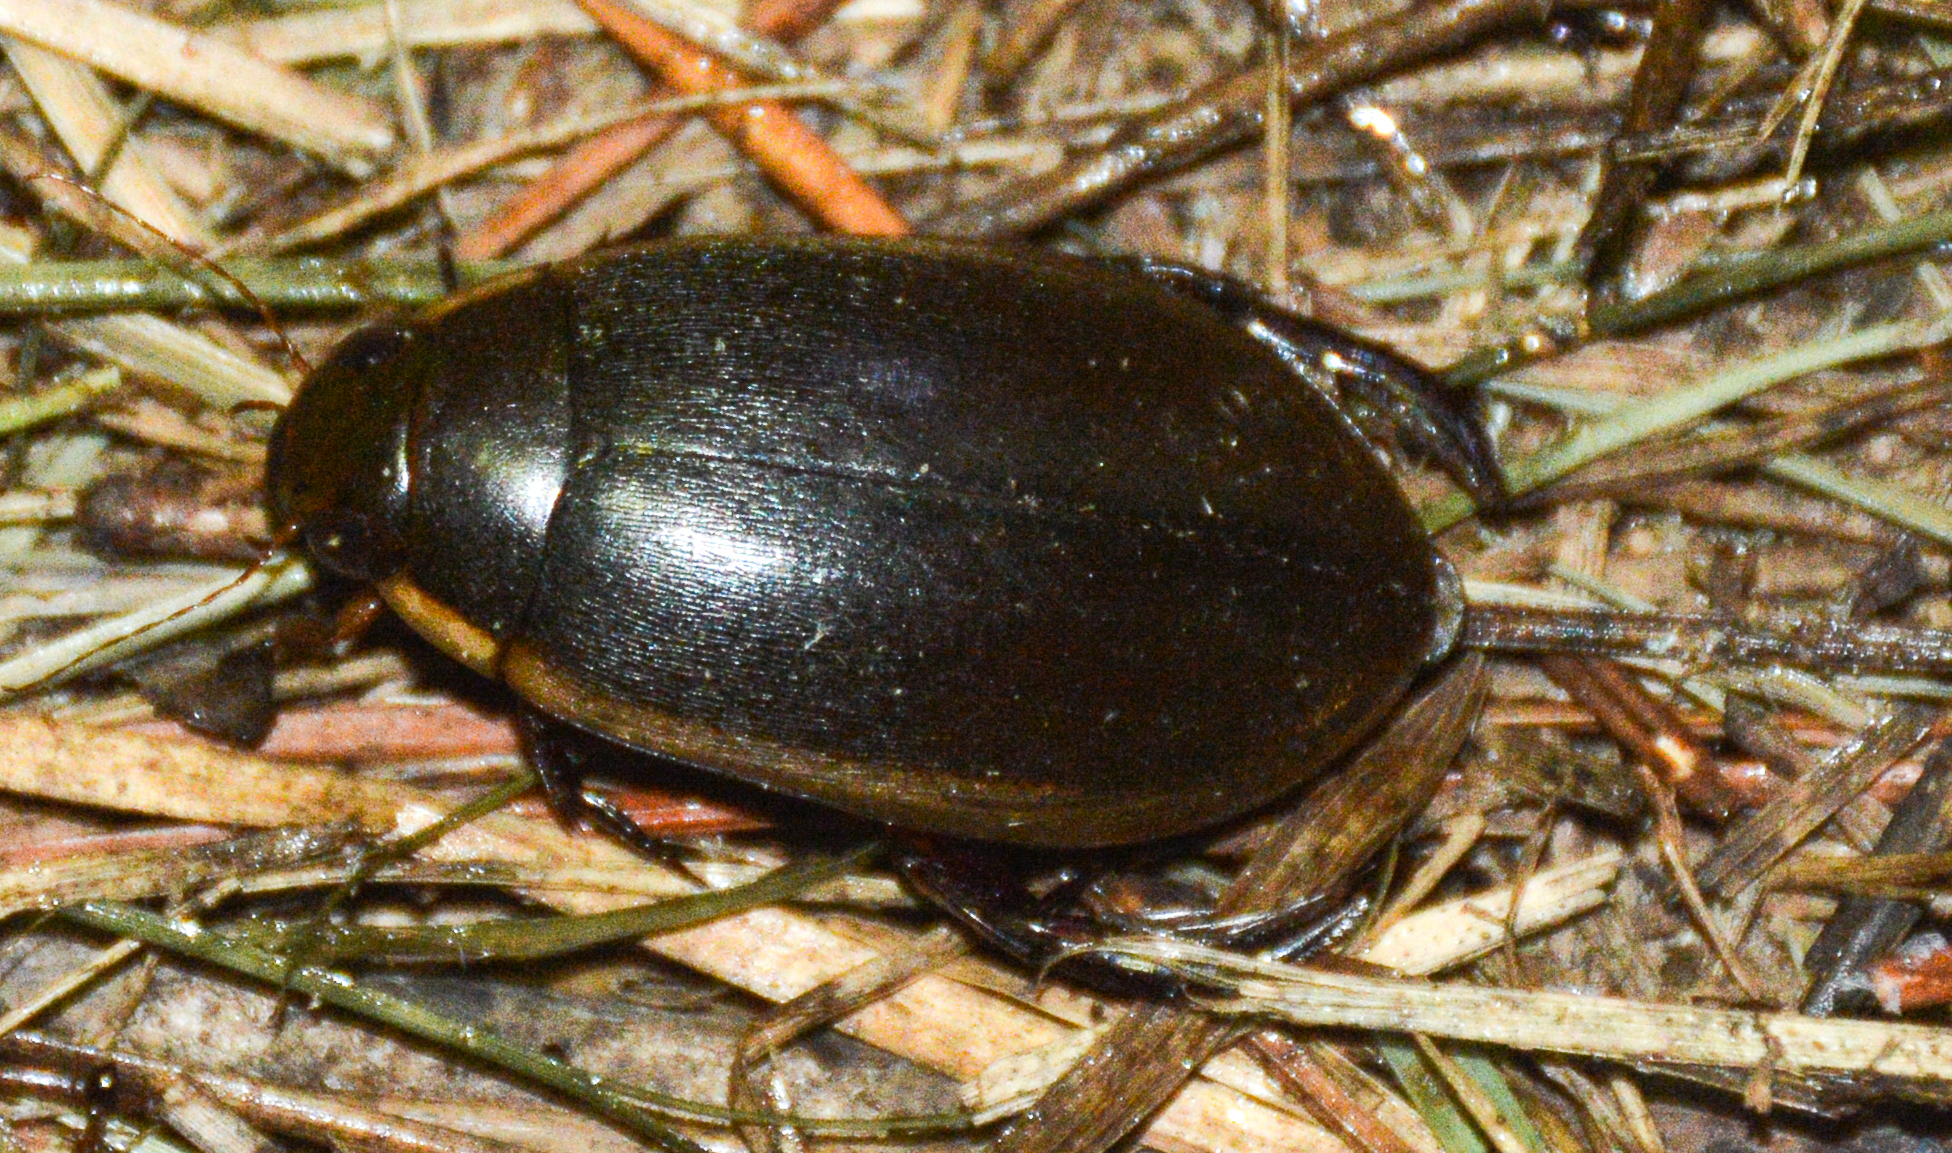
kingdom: Animalia
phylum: Arthropoda
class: Insecta
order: Coleoptera
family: Dytiscidae
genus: Cybister
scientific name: Cybister fimbriolatus
